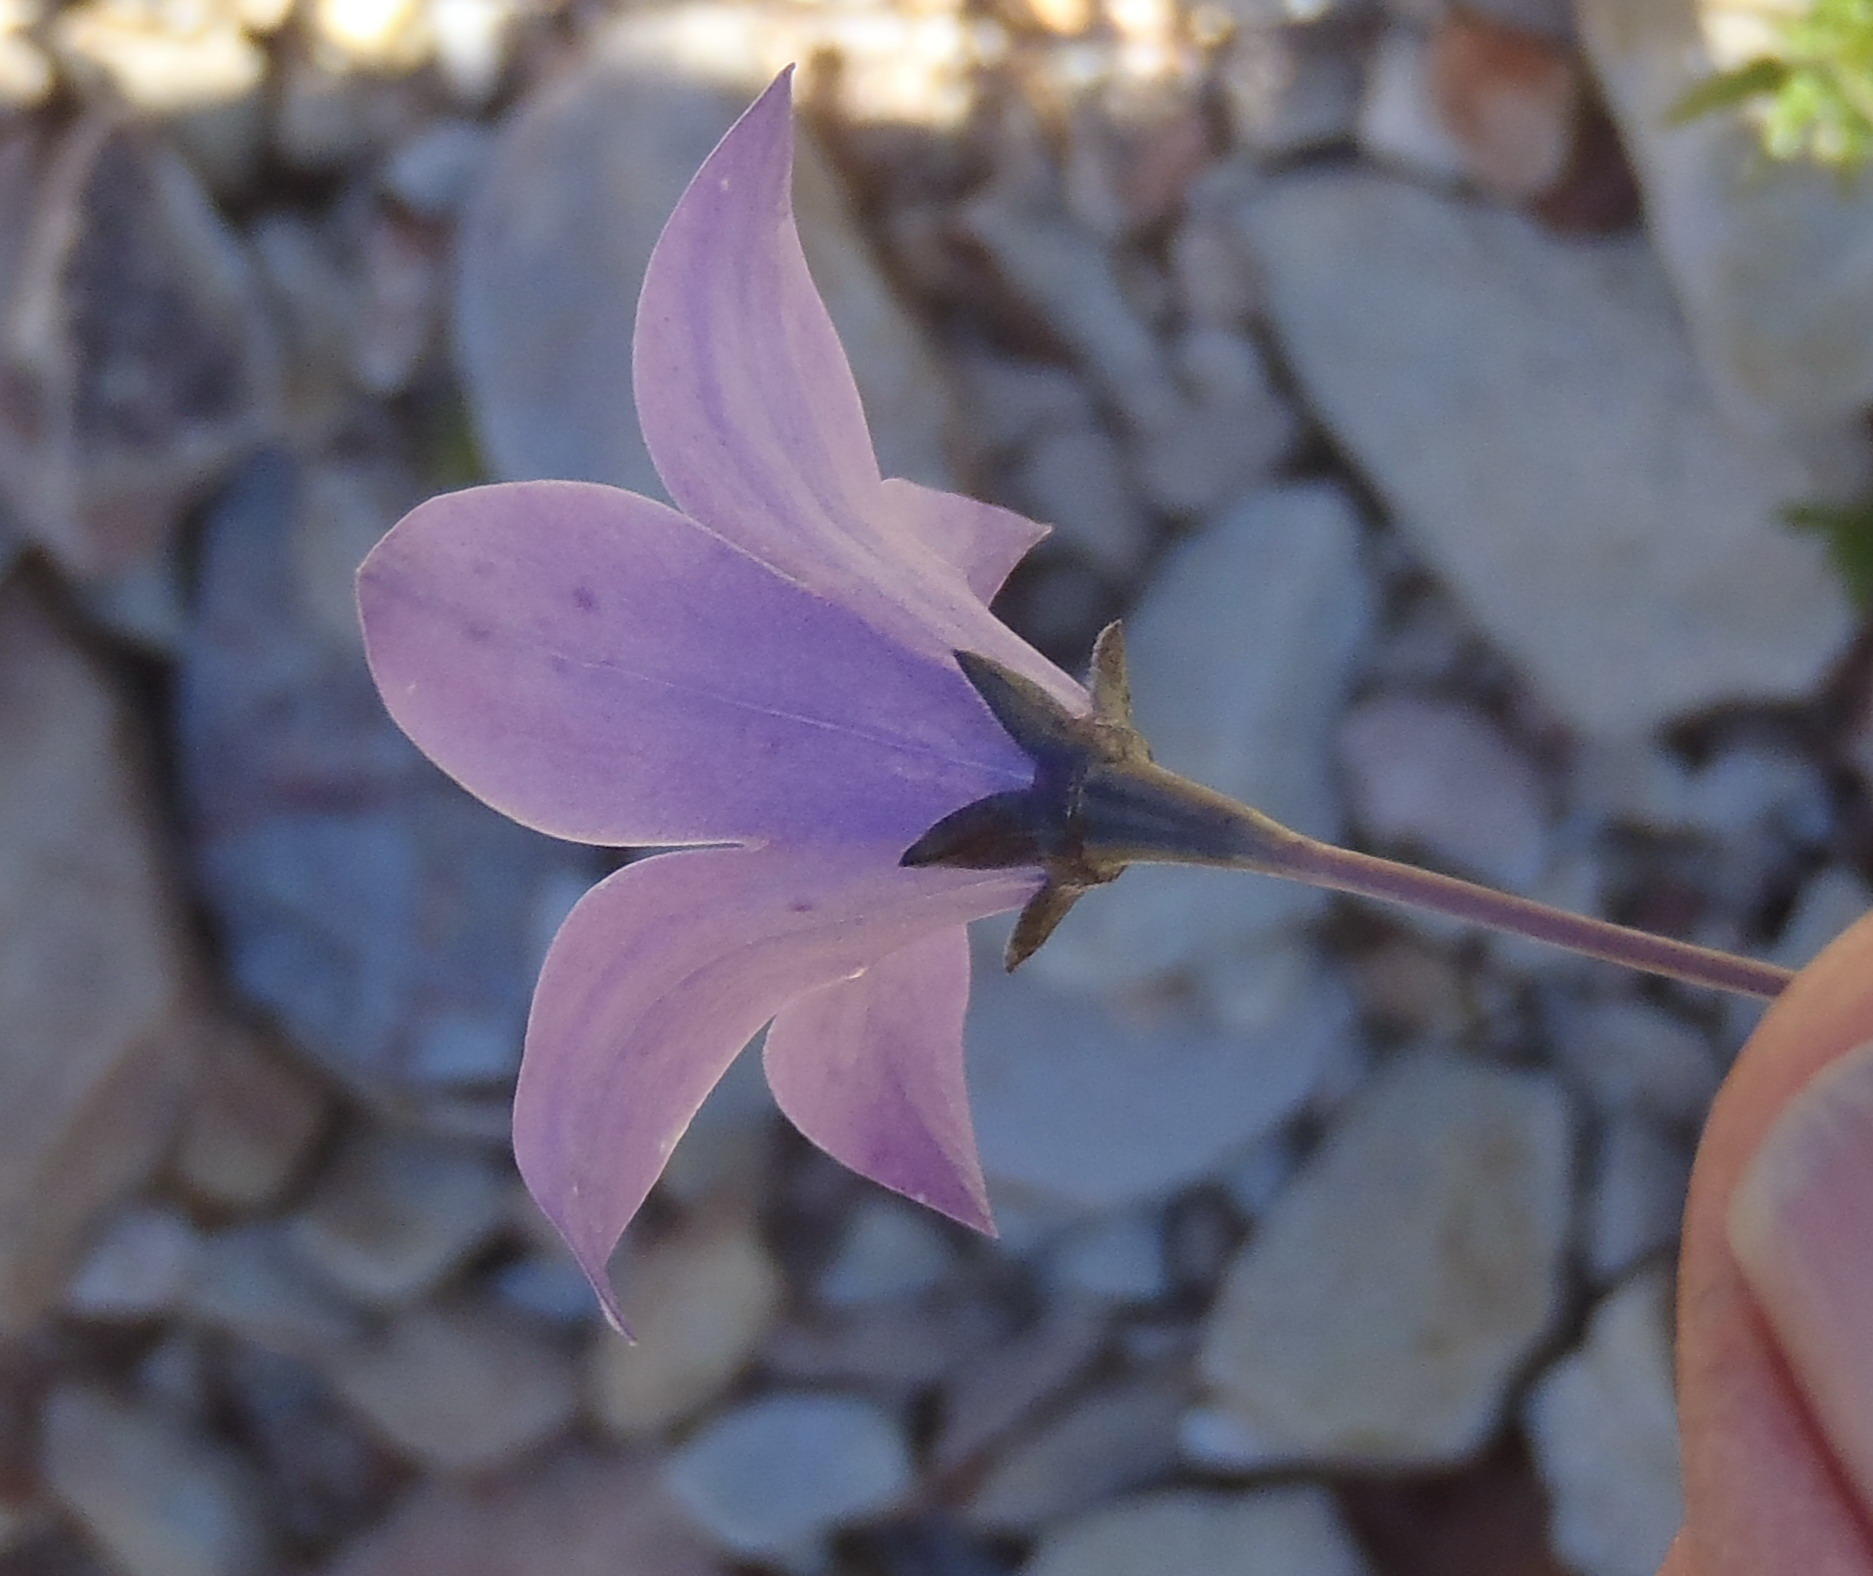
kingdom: Plantae
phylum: Tracheophyta
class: Magnoliopsida
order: Asterales
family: Campanulaceae
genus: Wahlenbergia
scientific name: Wahlenbergia undulata
